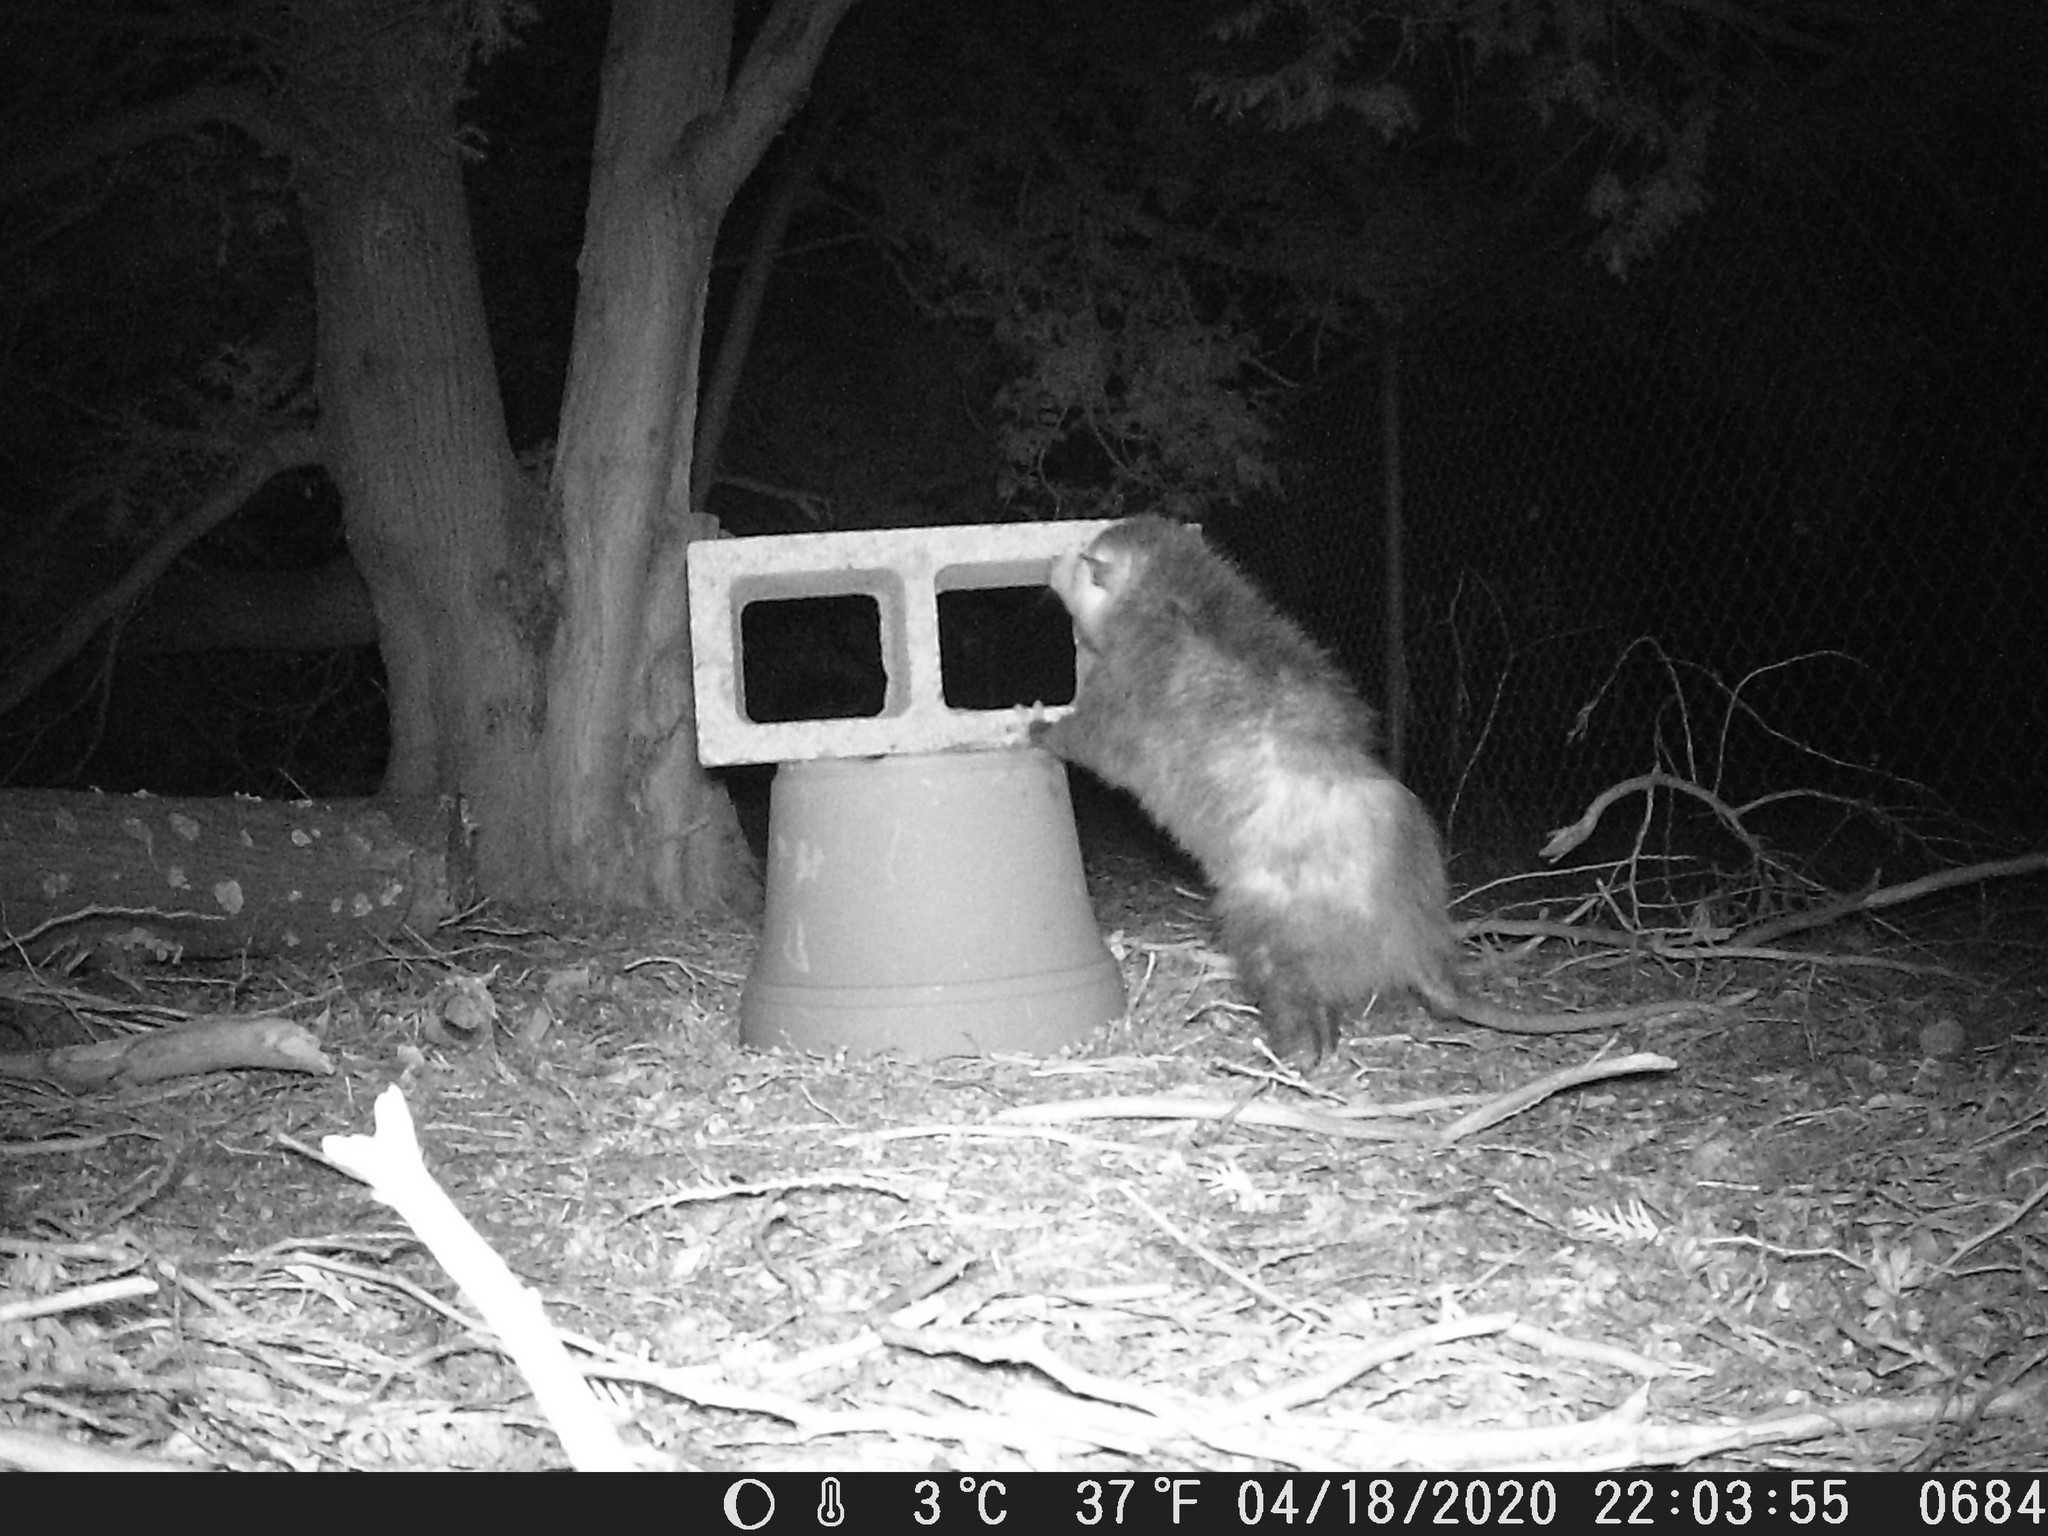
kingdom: Animalia
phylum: Chordata
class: Mammalia
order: Didelphimorphia
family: Didelphidae
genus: Didelphis
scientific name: Didelphis virginiana
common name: Virginia opossum
